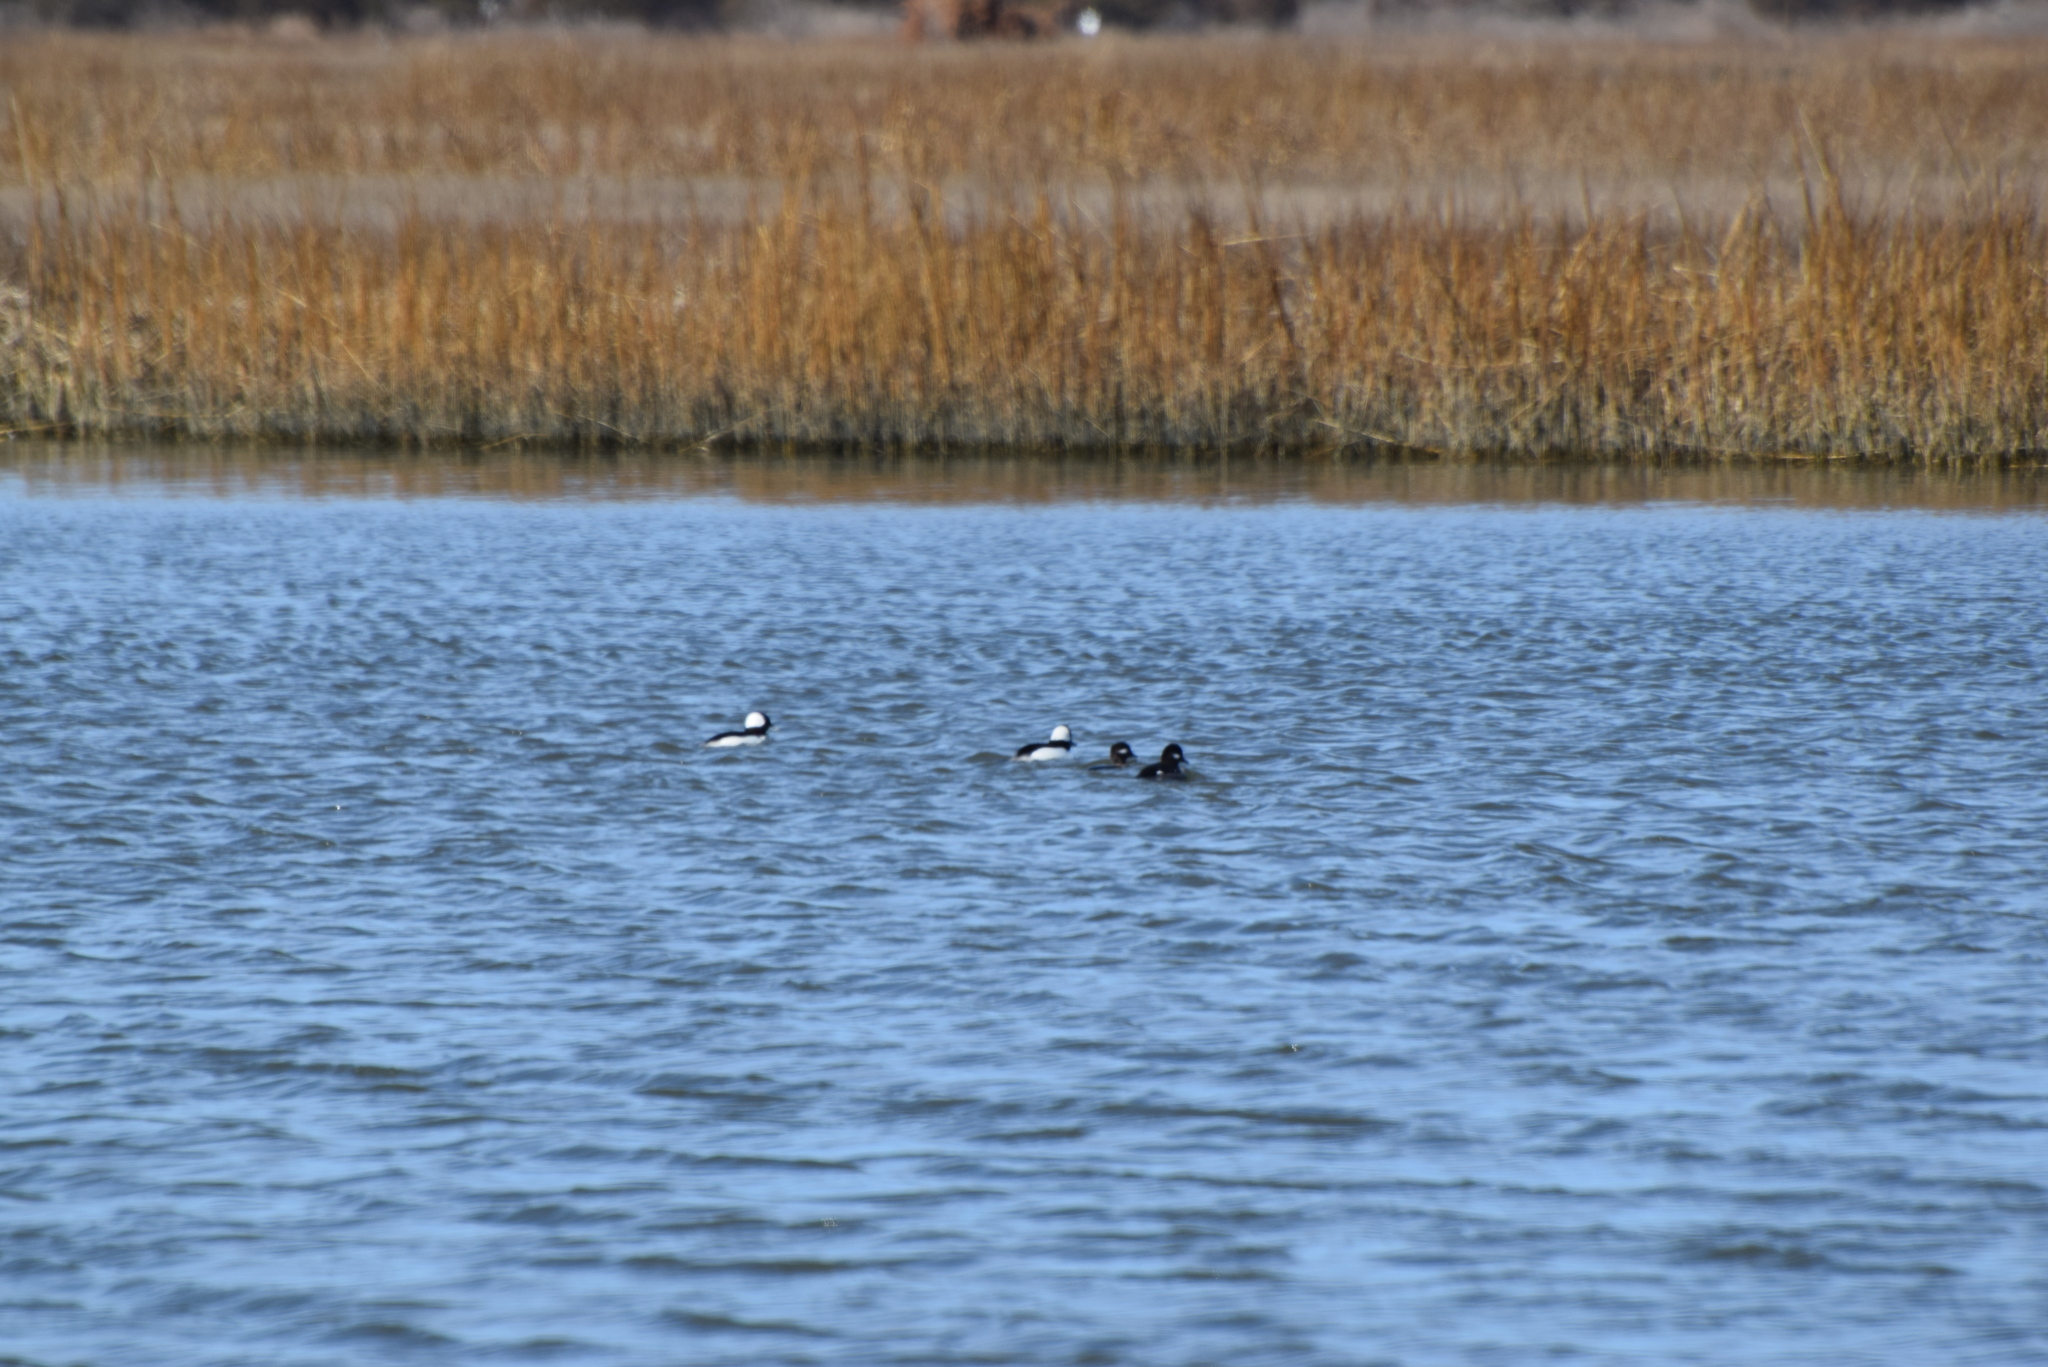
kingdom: Animalia
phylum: Chordata
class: Aves
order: Anseriformes
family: Anatidae
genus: Bucephala
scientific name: Bucephala albeola
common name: Bufflehead
